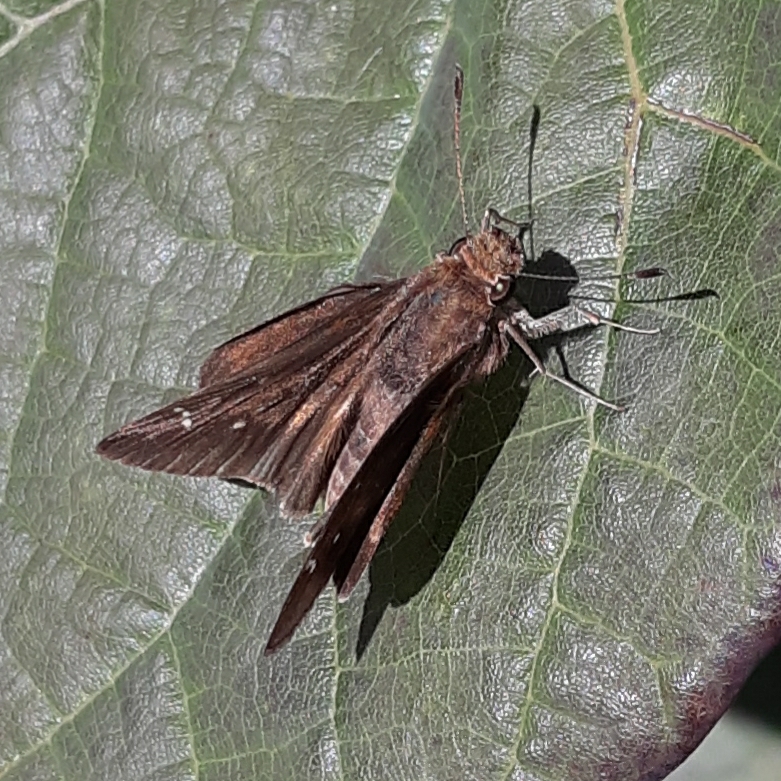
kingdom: Animalia
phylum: Arthropoda
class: Insecta
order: Lepidoptera
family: Hesperiidae
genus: Lerema
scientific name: Lerema accius
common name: Clouded skipper
